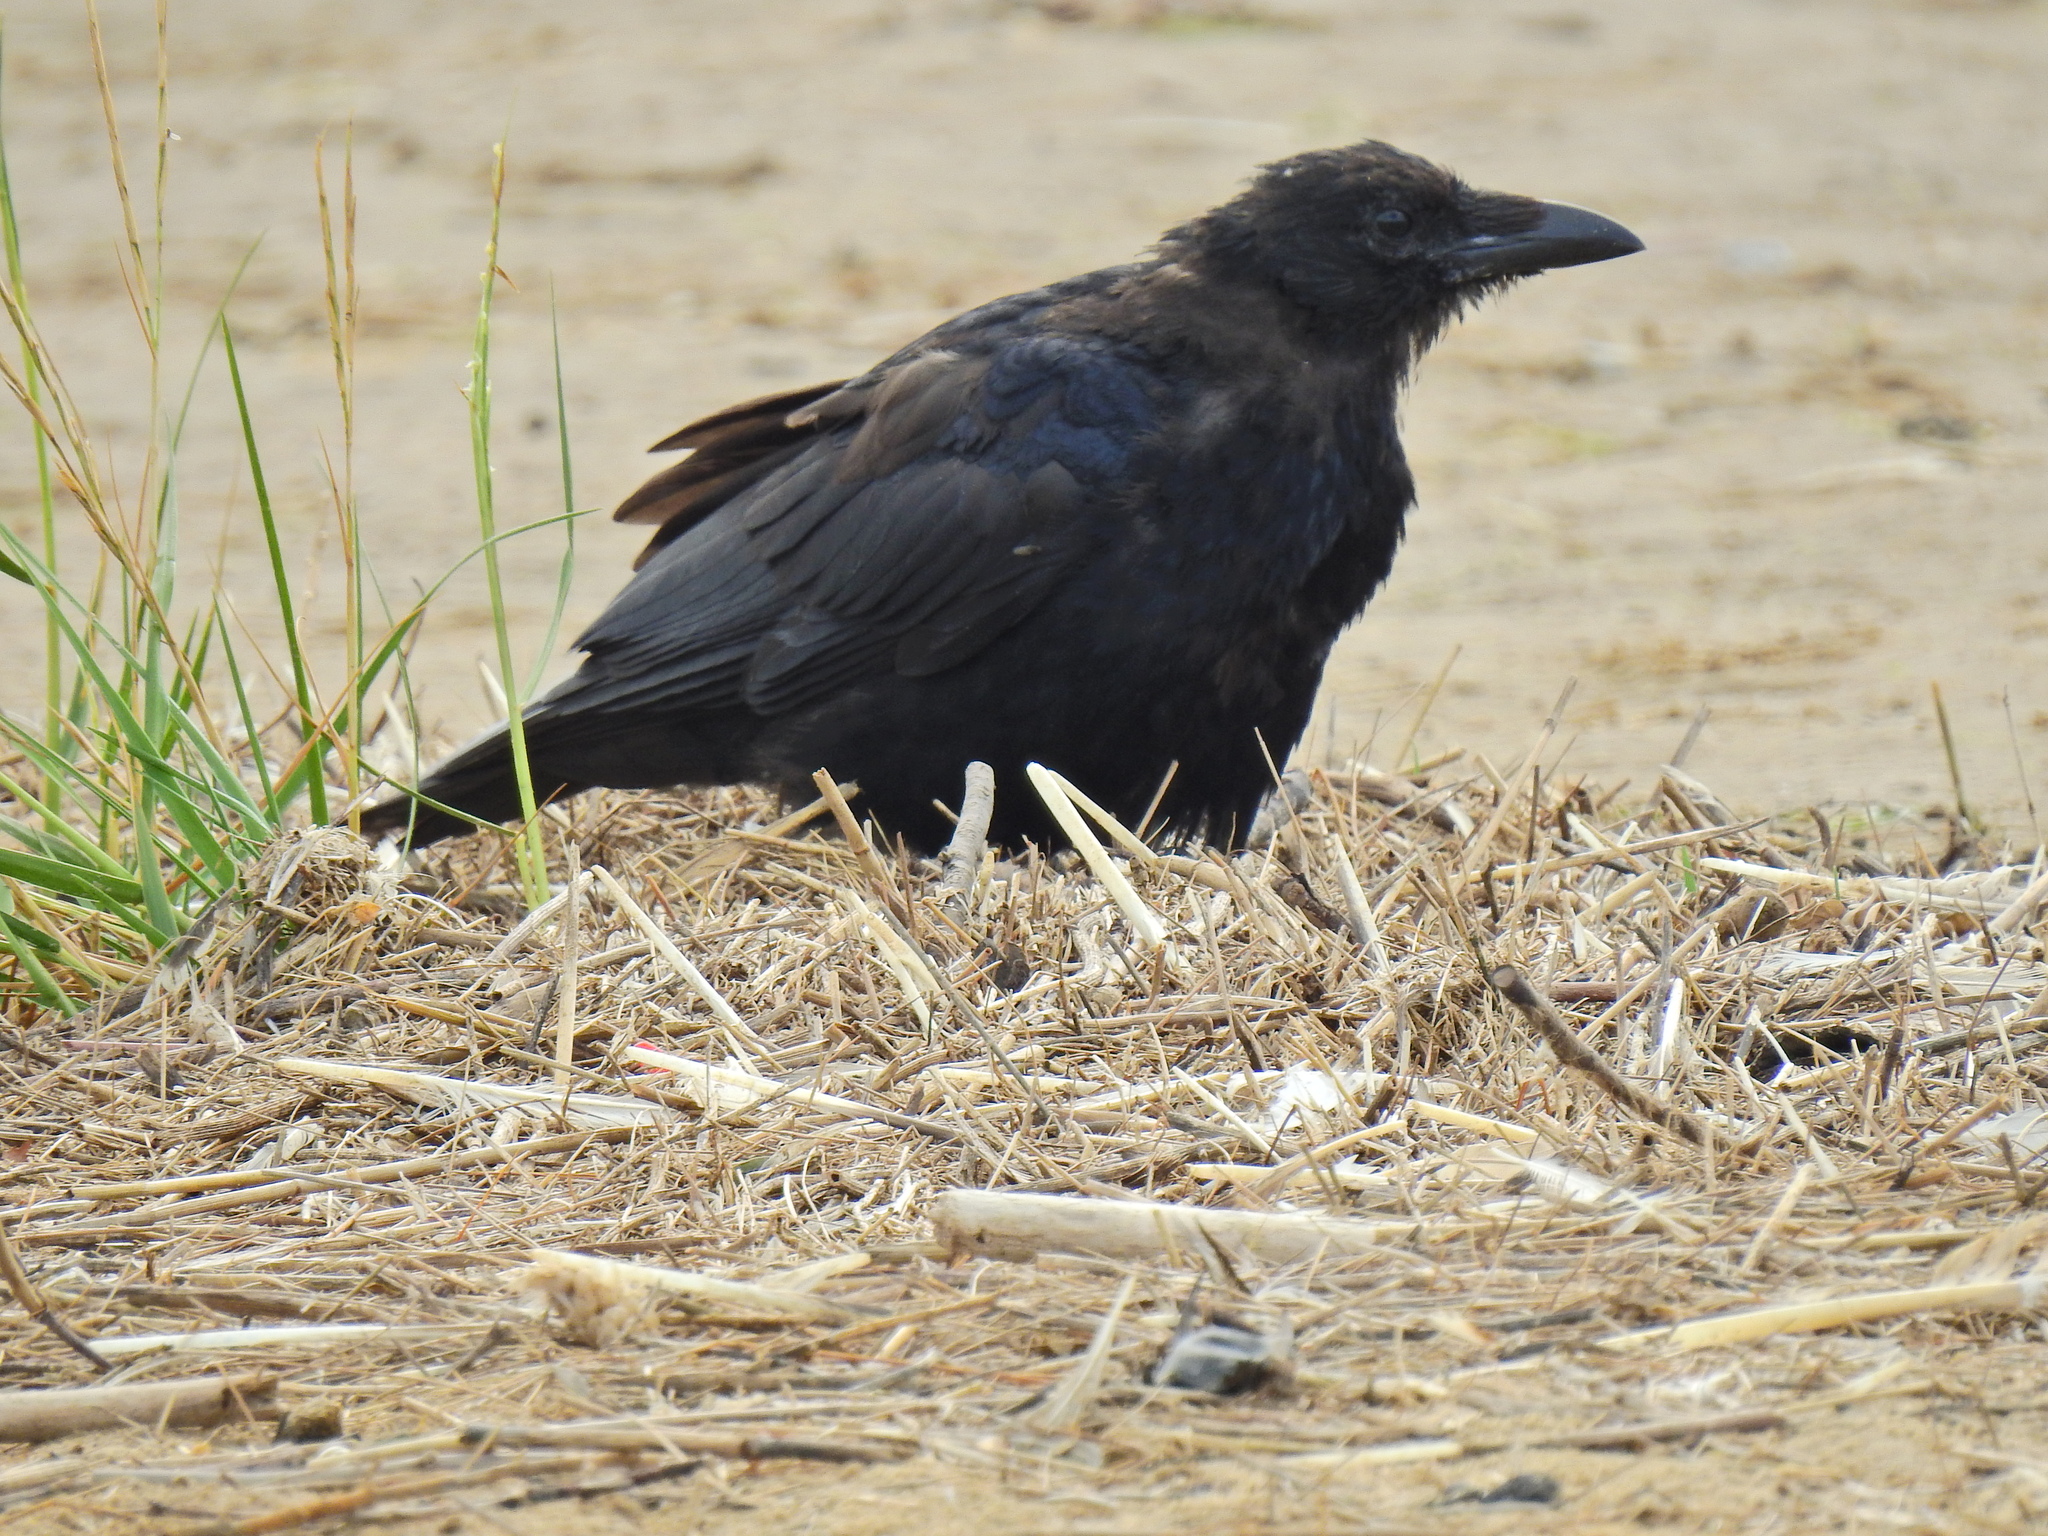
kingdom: Animalia
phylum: Chordata
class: Aves
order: Passeriformes
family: Corvidae
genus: Corvus
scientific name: Corvus corax
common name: Common raven
